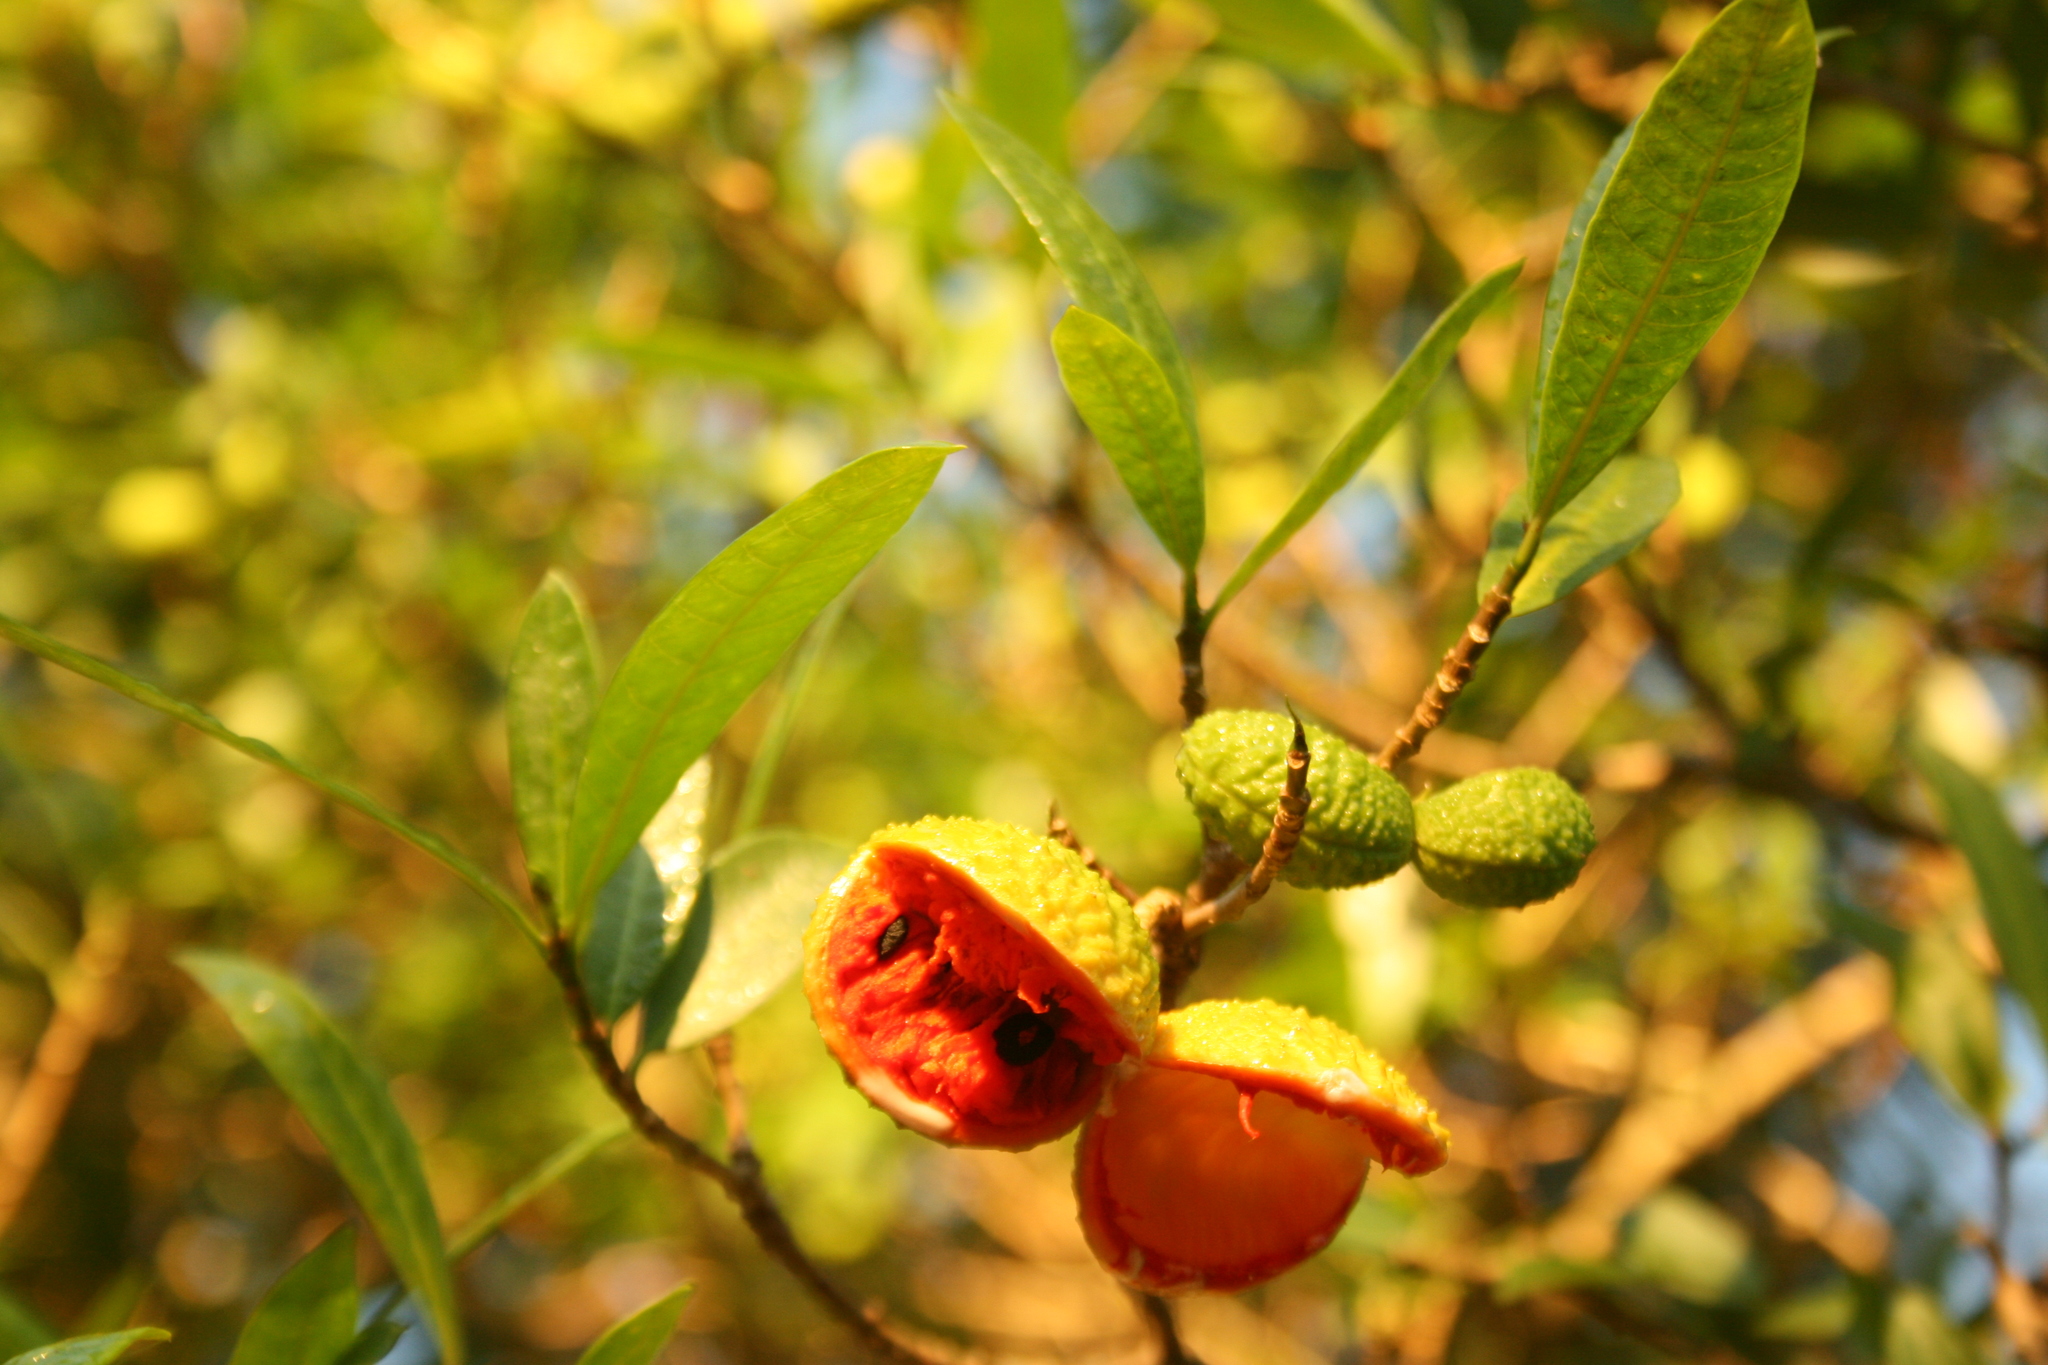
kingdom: Plantae
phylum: Tracheophyta
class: Magnoliopsida
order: Gentianales
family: Apocynaceae
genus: Tabernaemontana
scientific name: Tabernaemontana catharinensis
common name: Pinwheel-flower
